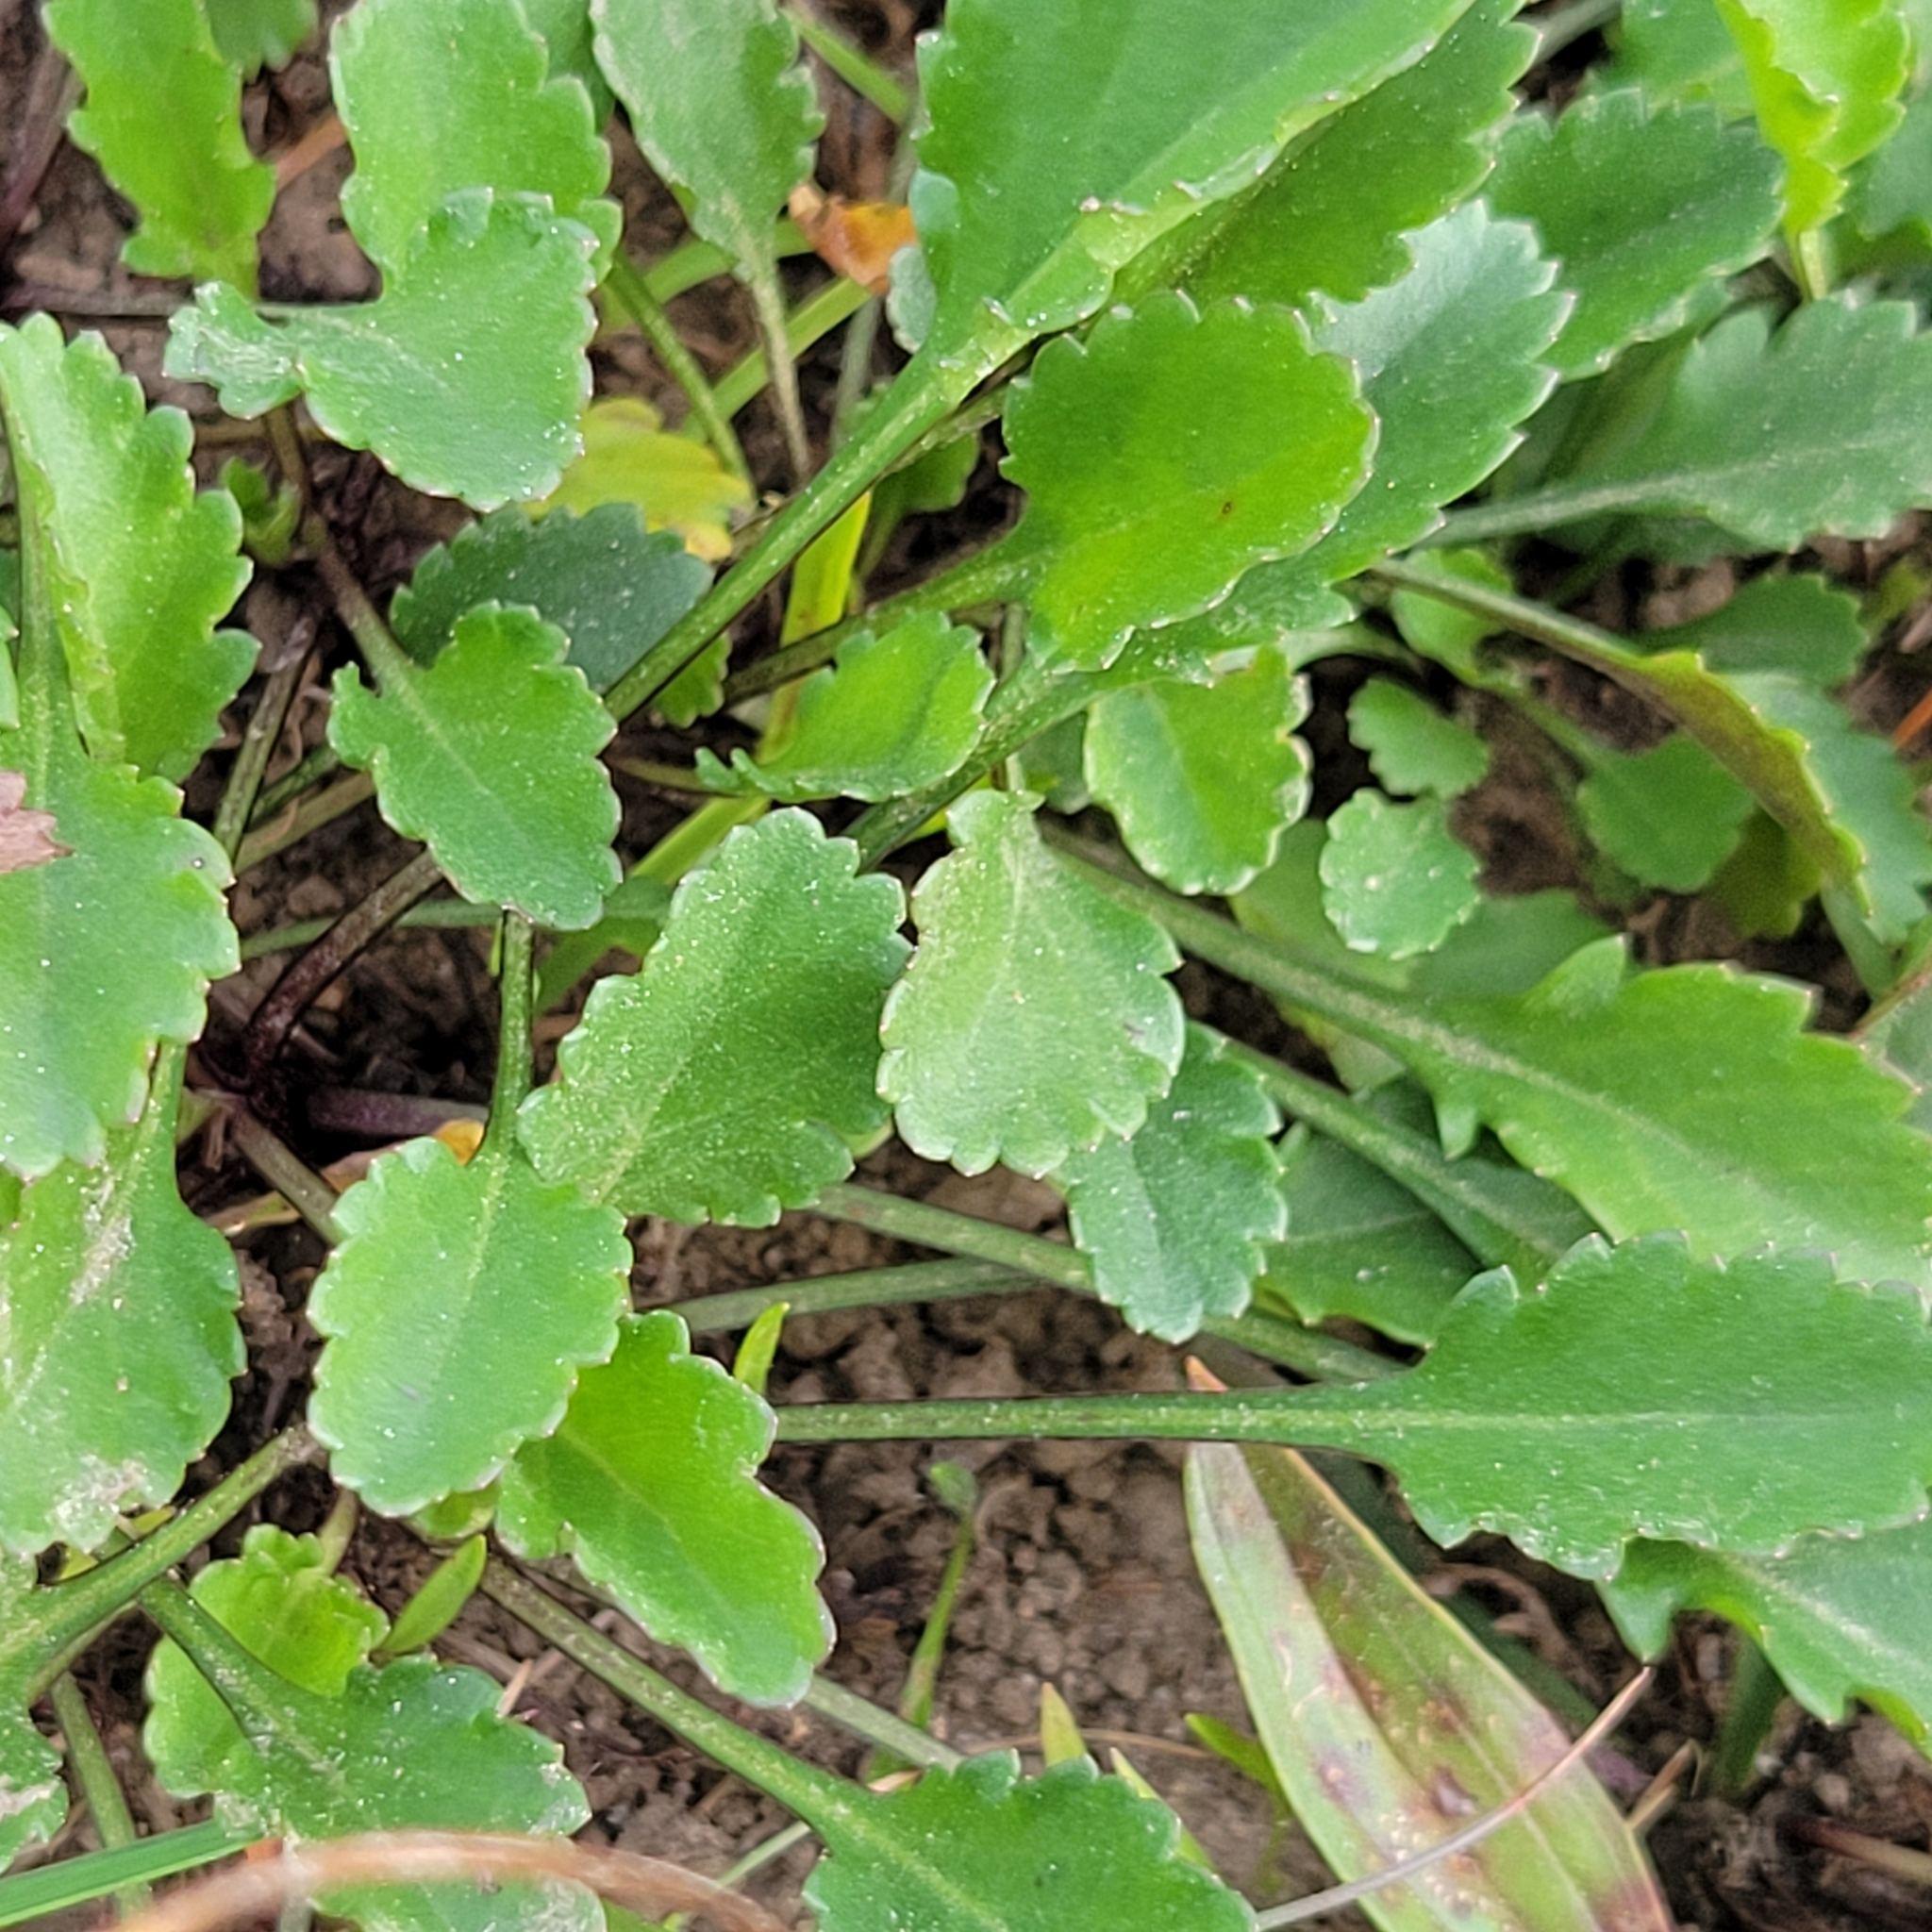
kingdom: Plantae
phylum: Tracheophyta
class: Magnoliopsida
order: Asterales
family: Asteraceae
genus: Leucanthemum
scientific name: Leucanthemum vulgare
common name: Oxeye daisy
